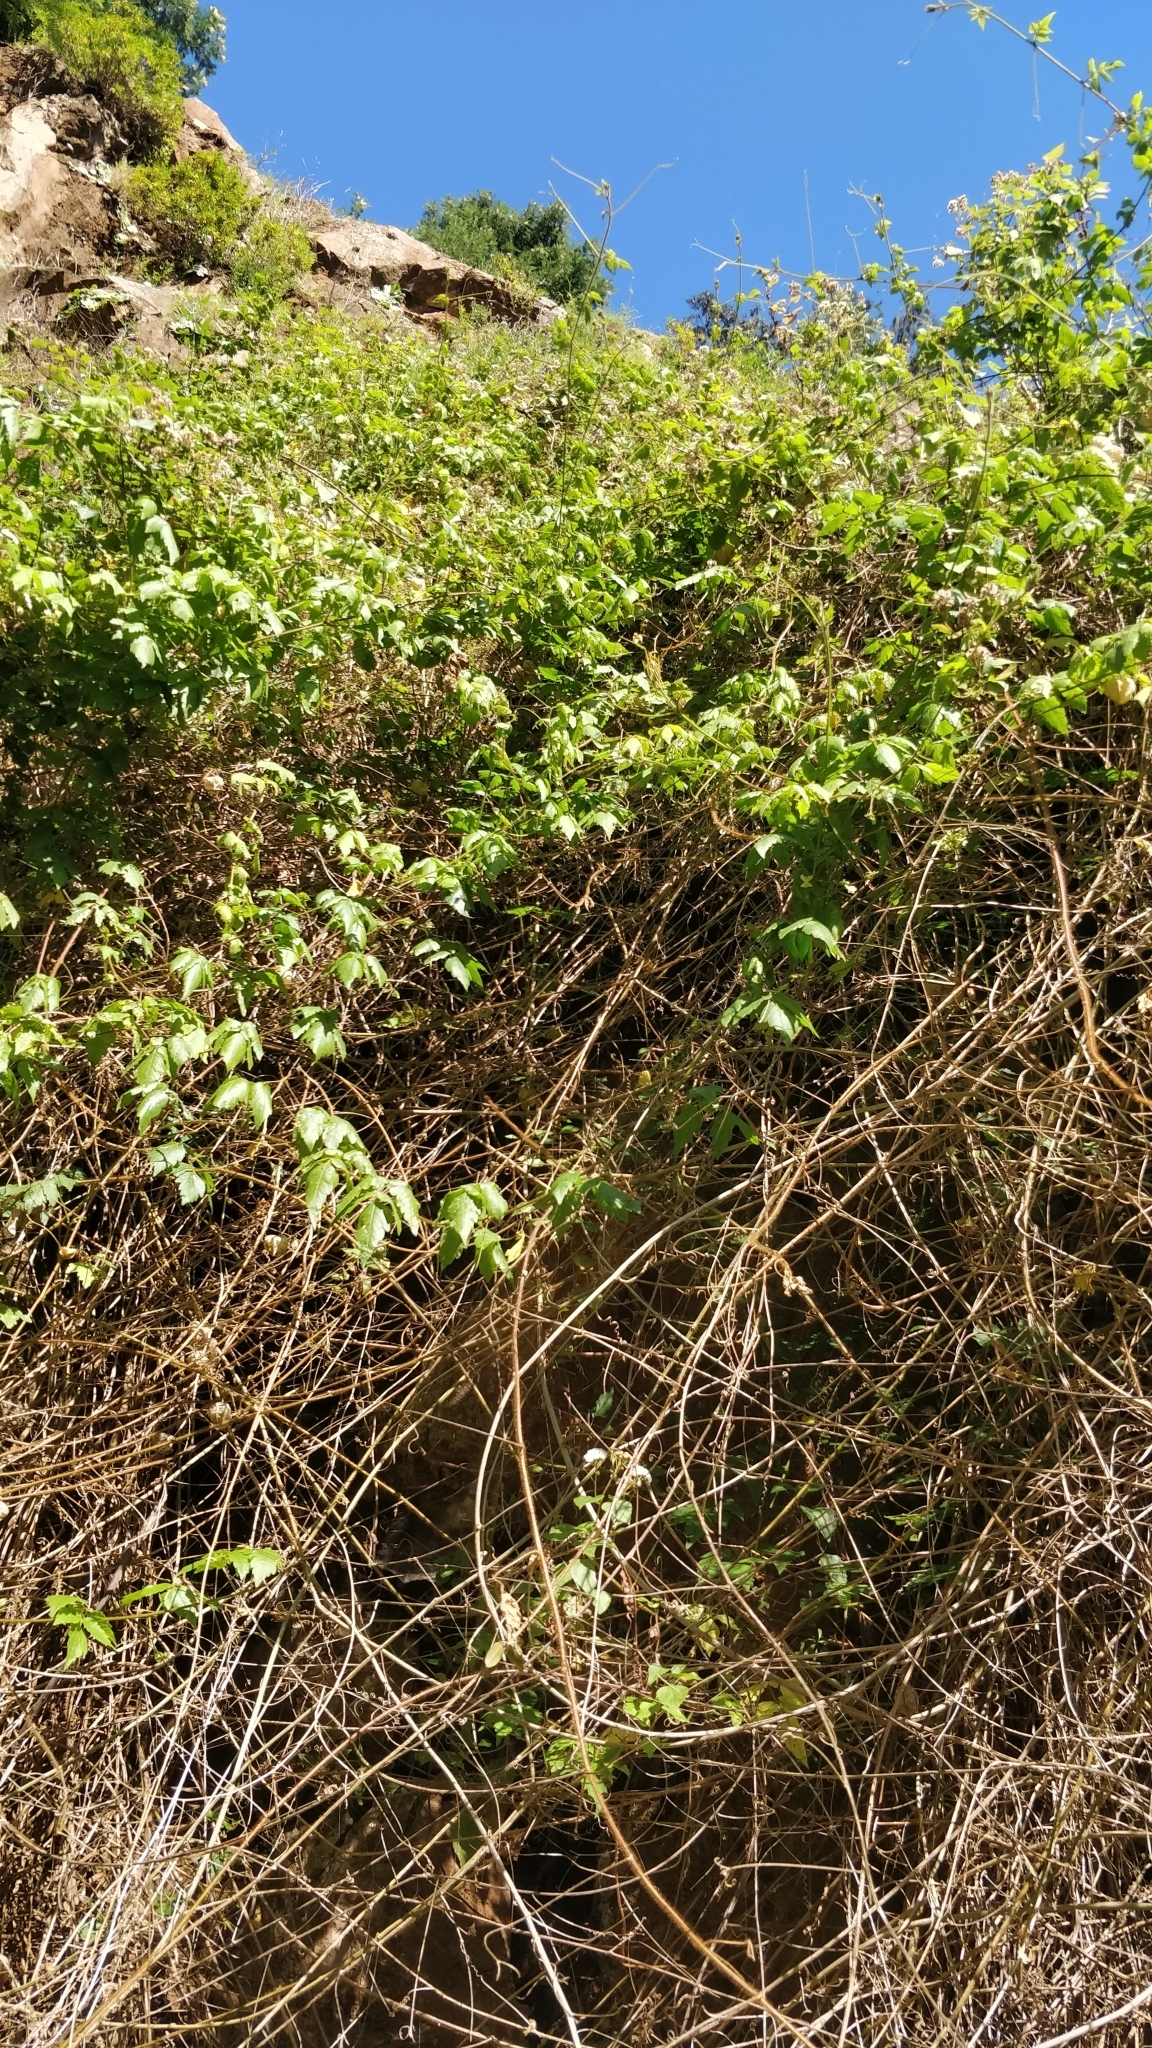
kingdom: Plantae
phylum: Tracheophyta
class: Magnoliopsida
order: Sapindales
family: Sapindaceae
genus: Cardiospermum
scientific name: Cardiospermum grandiflorum
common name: Balloon vine
